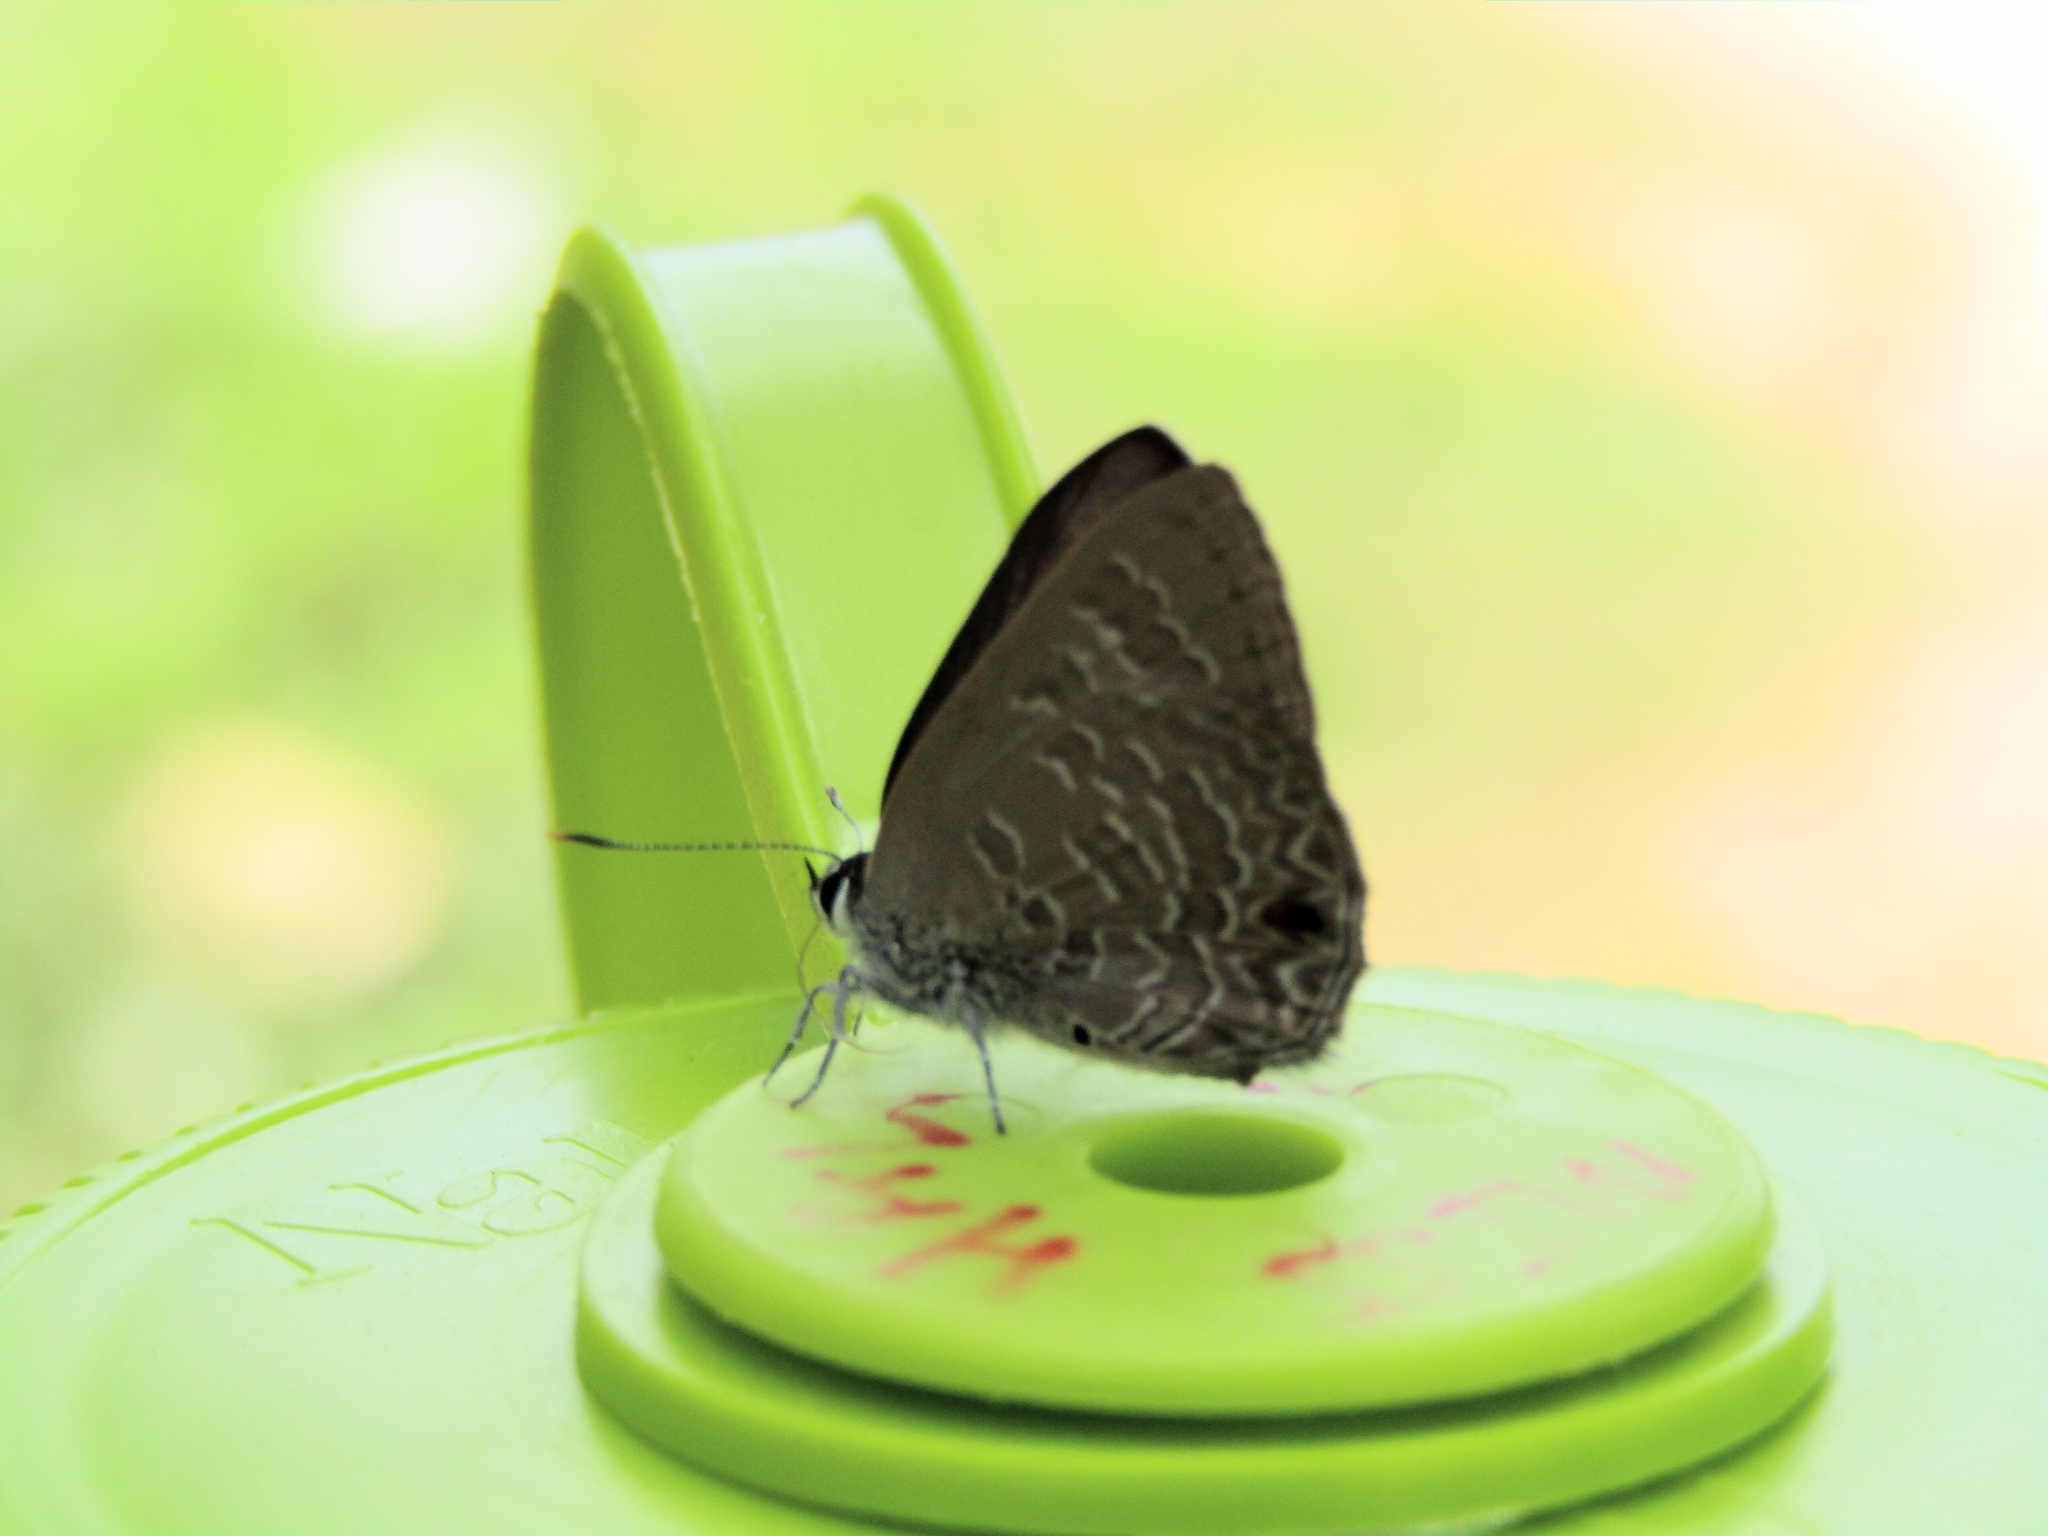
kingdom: Animalia
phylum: Arthropoda
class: Insecta
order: Lepidoptera
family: Lycaenidae
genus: Anthene
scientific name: Anthene emolus
